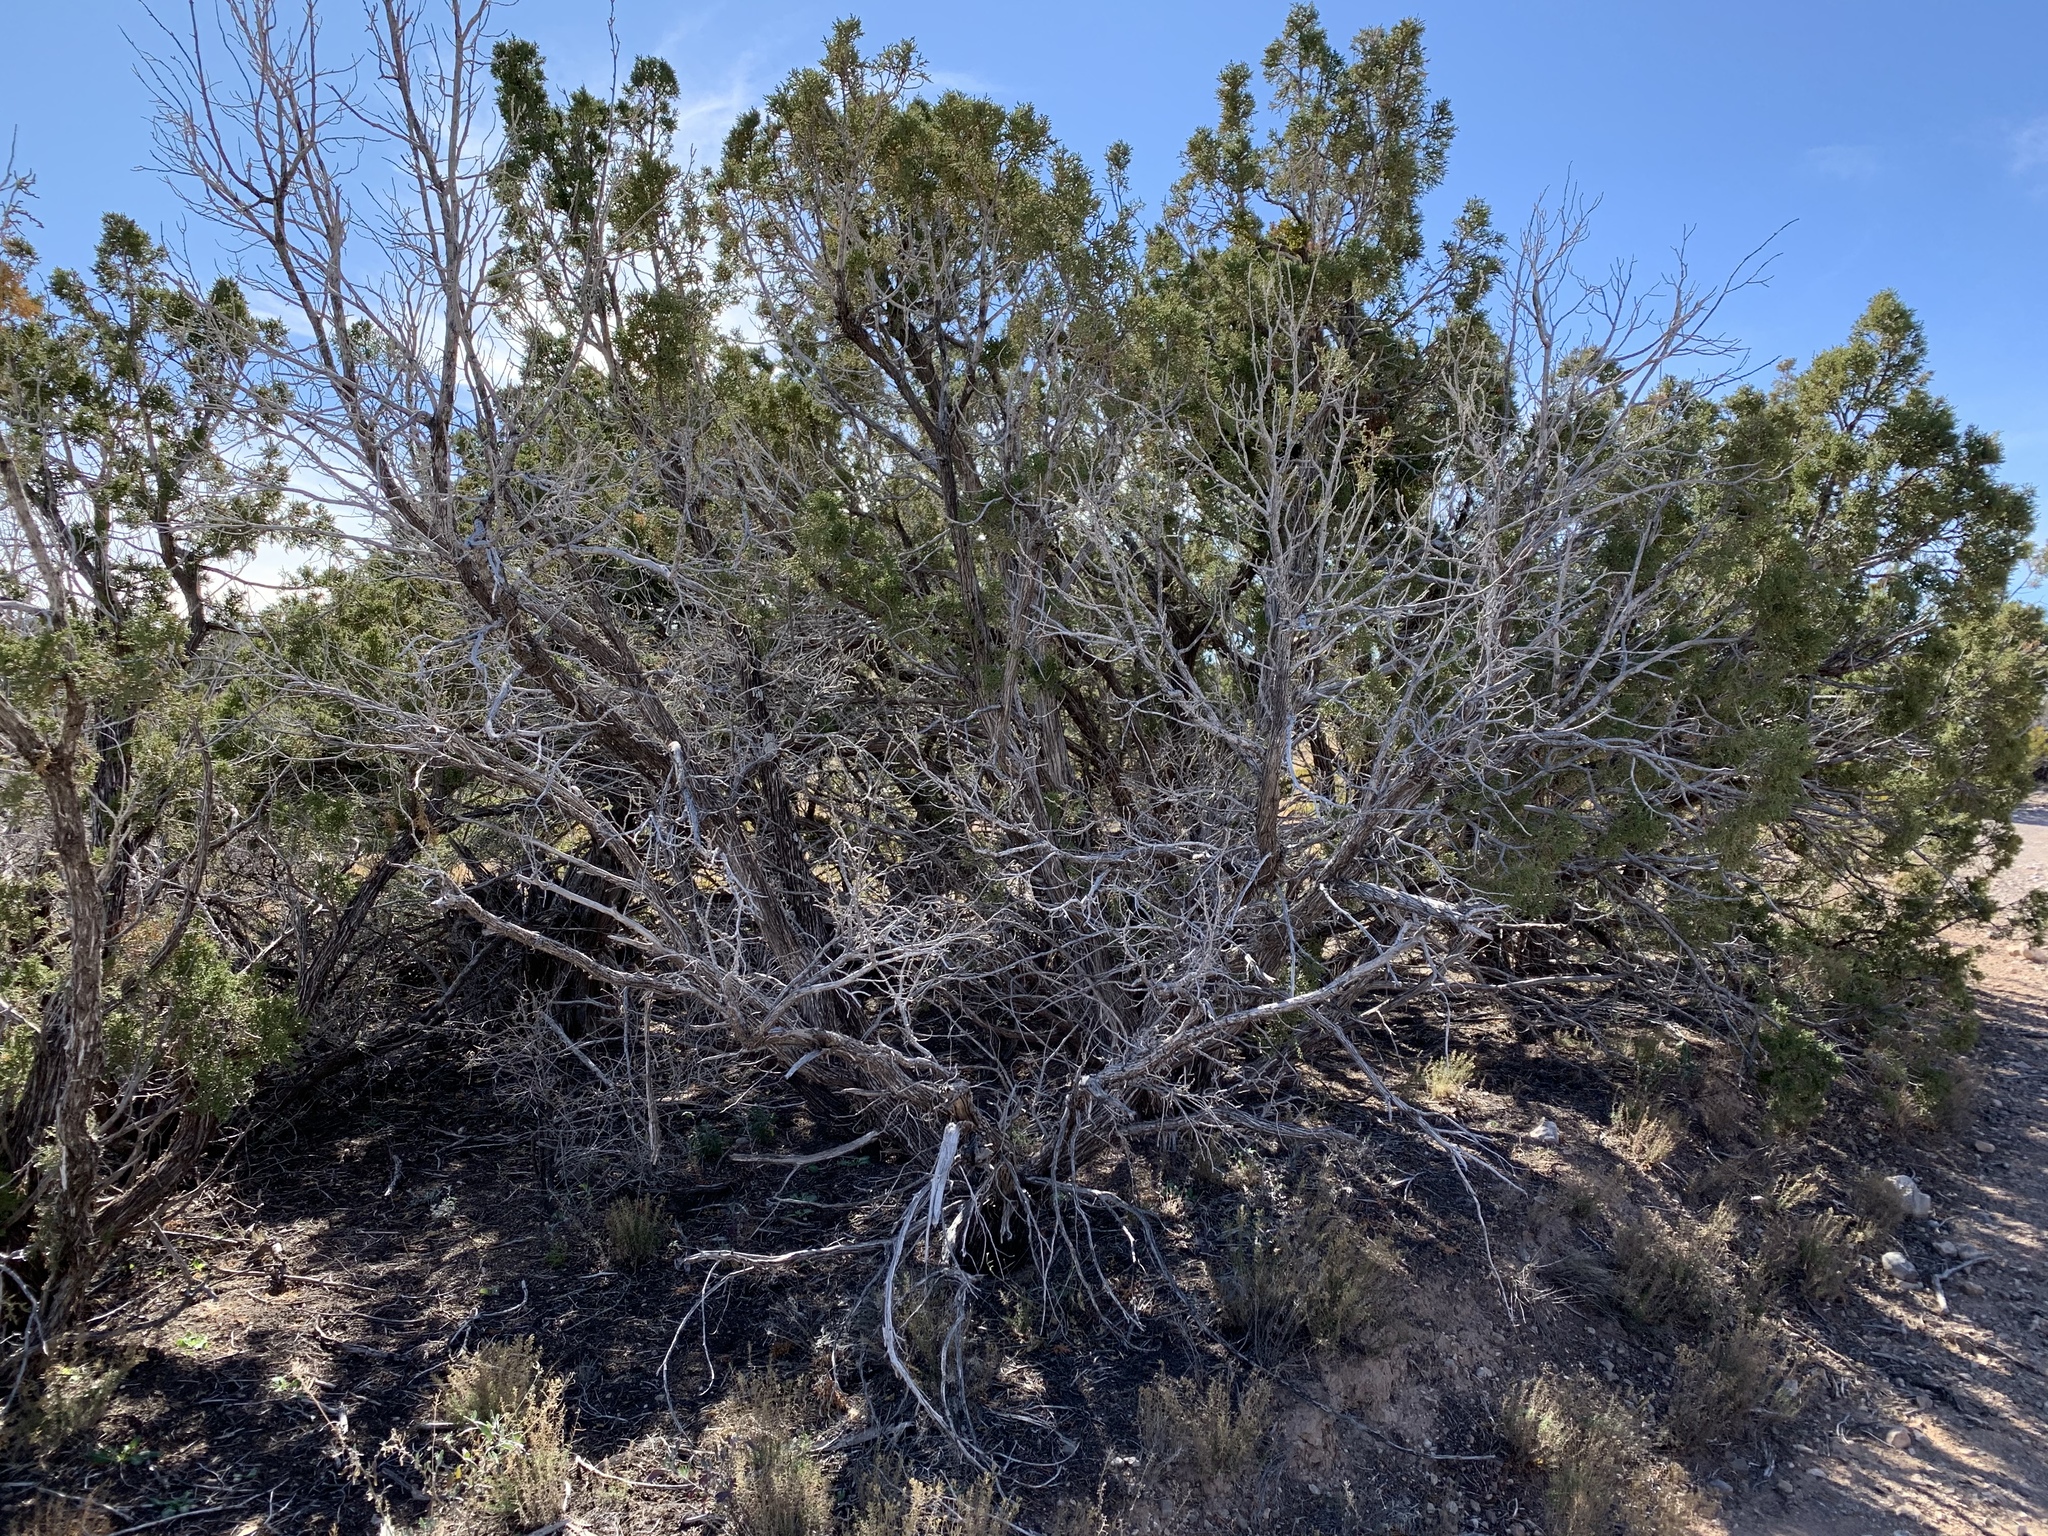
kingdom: Plantae
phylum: Tracheophyta
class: Pinopsida
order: Pinales
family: Cupressaceae
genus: Juniperus
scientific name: Juniperus monosperma
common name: One-seed juniper
